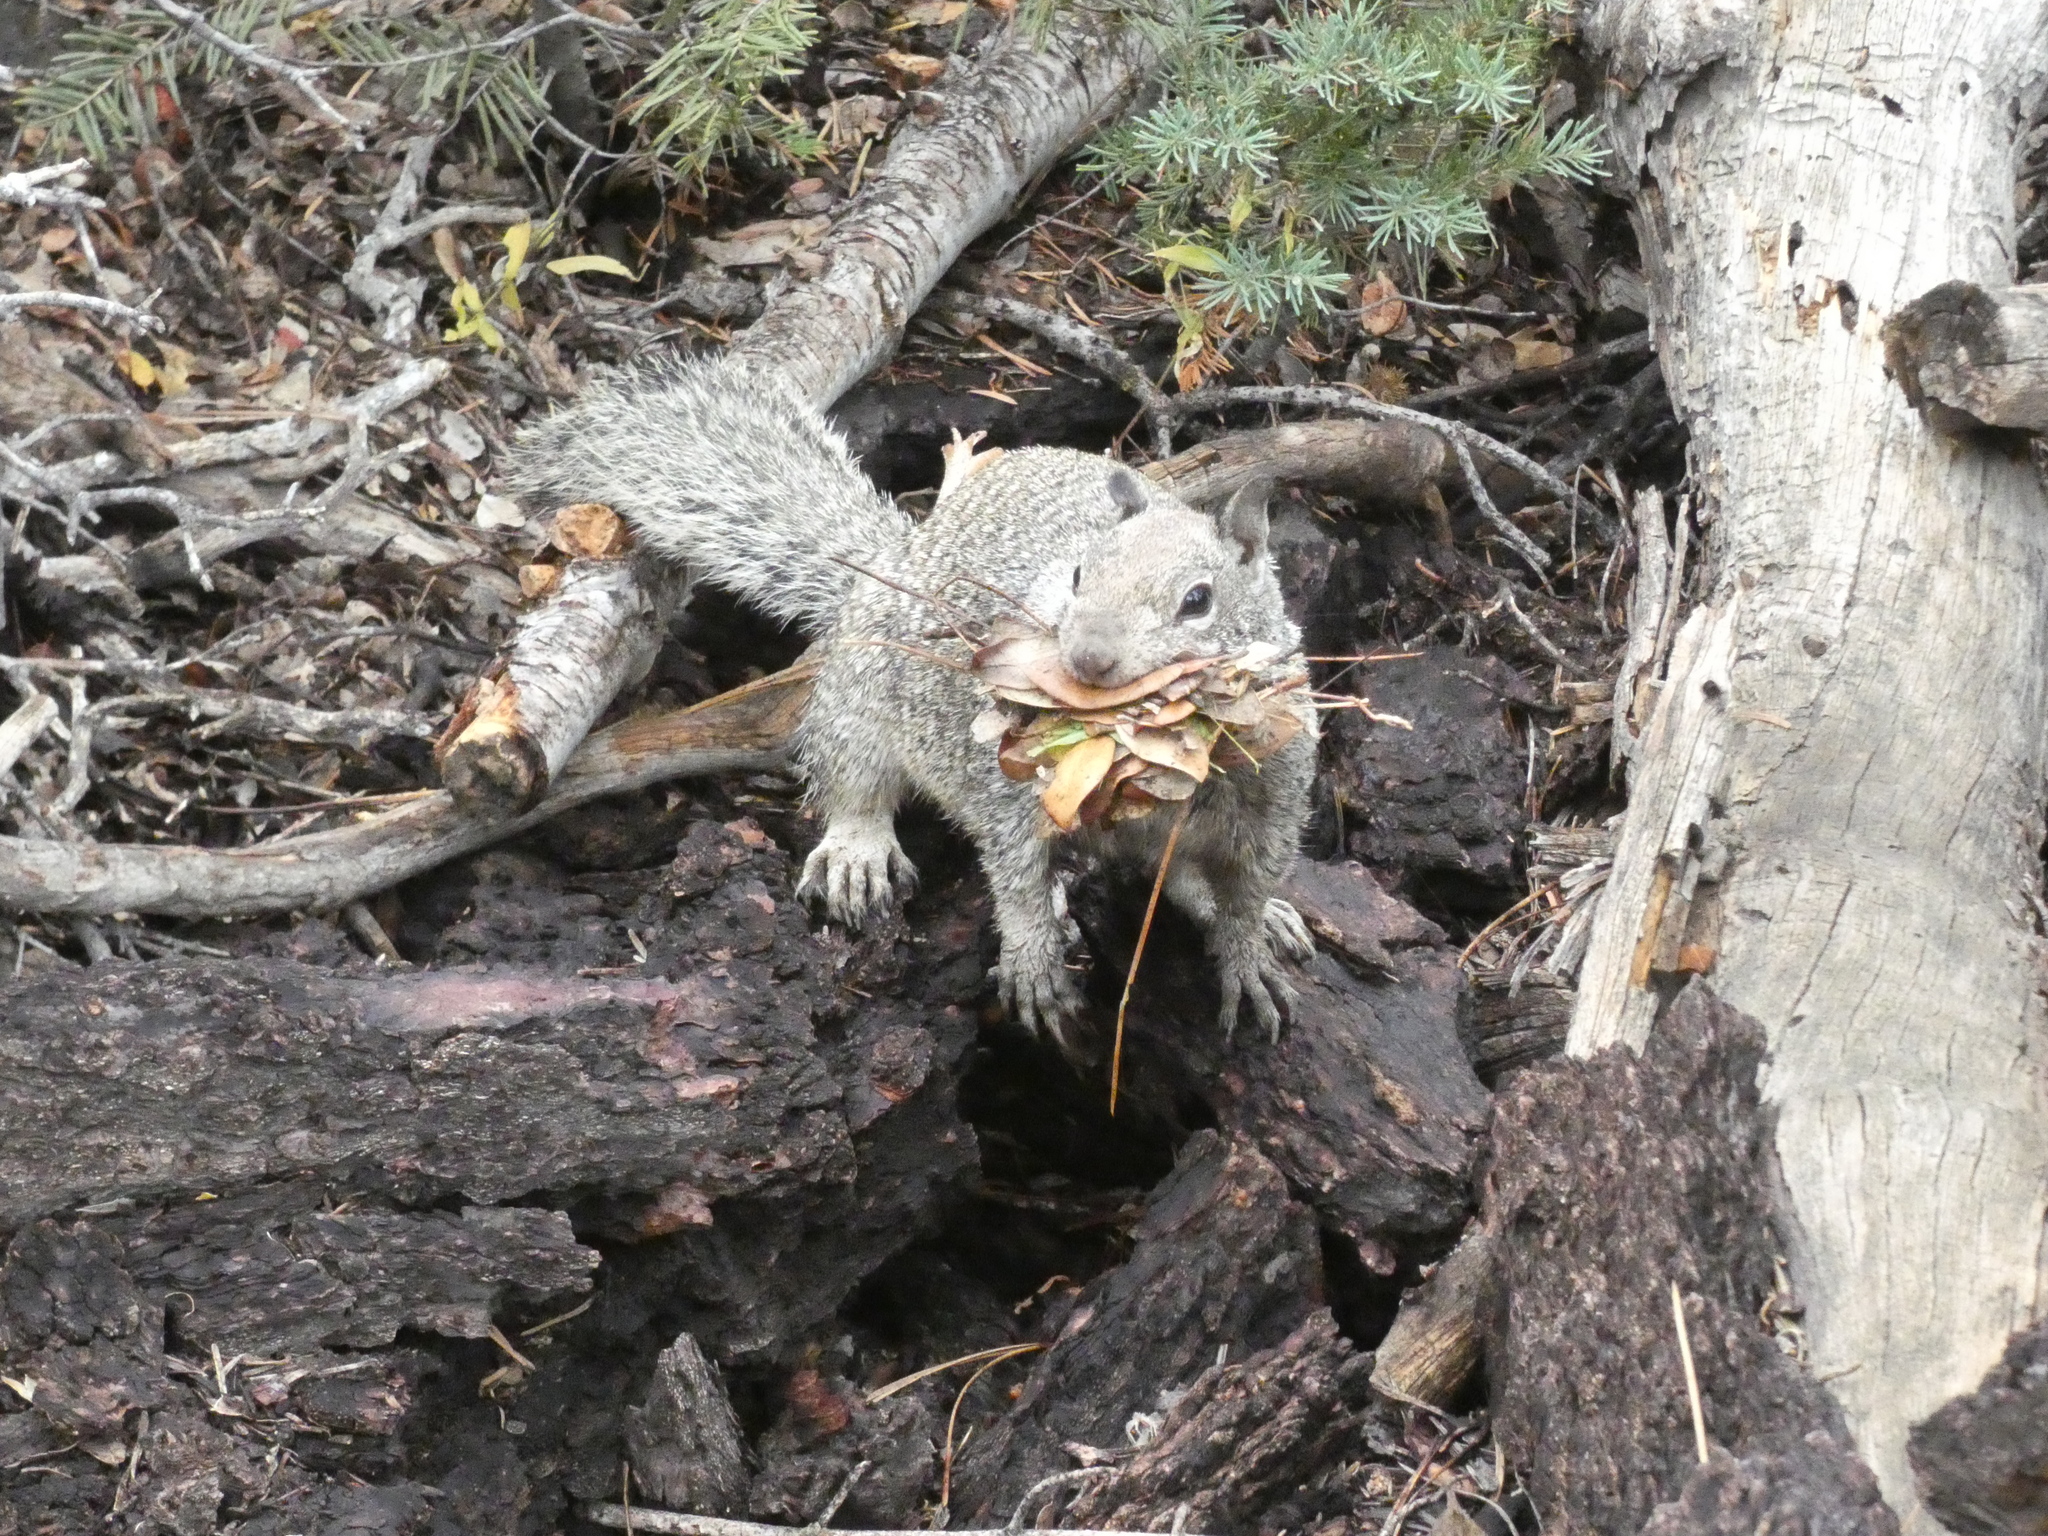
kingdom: Animalia
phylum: Chordata
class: Mammalia
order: Rodentia
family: Sciuridae
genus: Otospermophilus
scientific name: Otospermophilus beecheyi
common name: California ground squirrel
